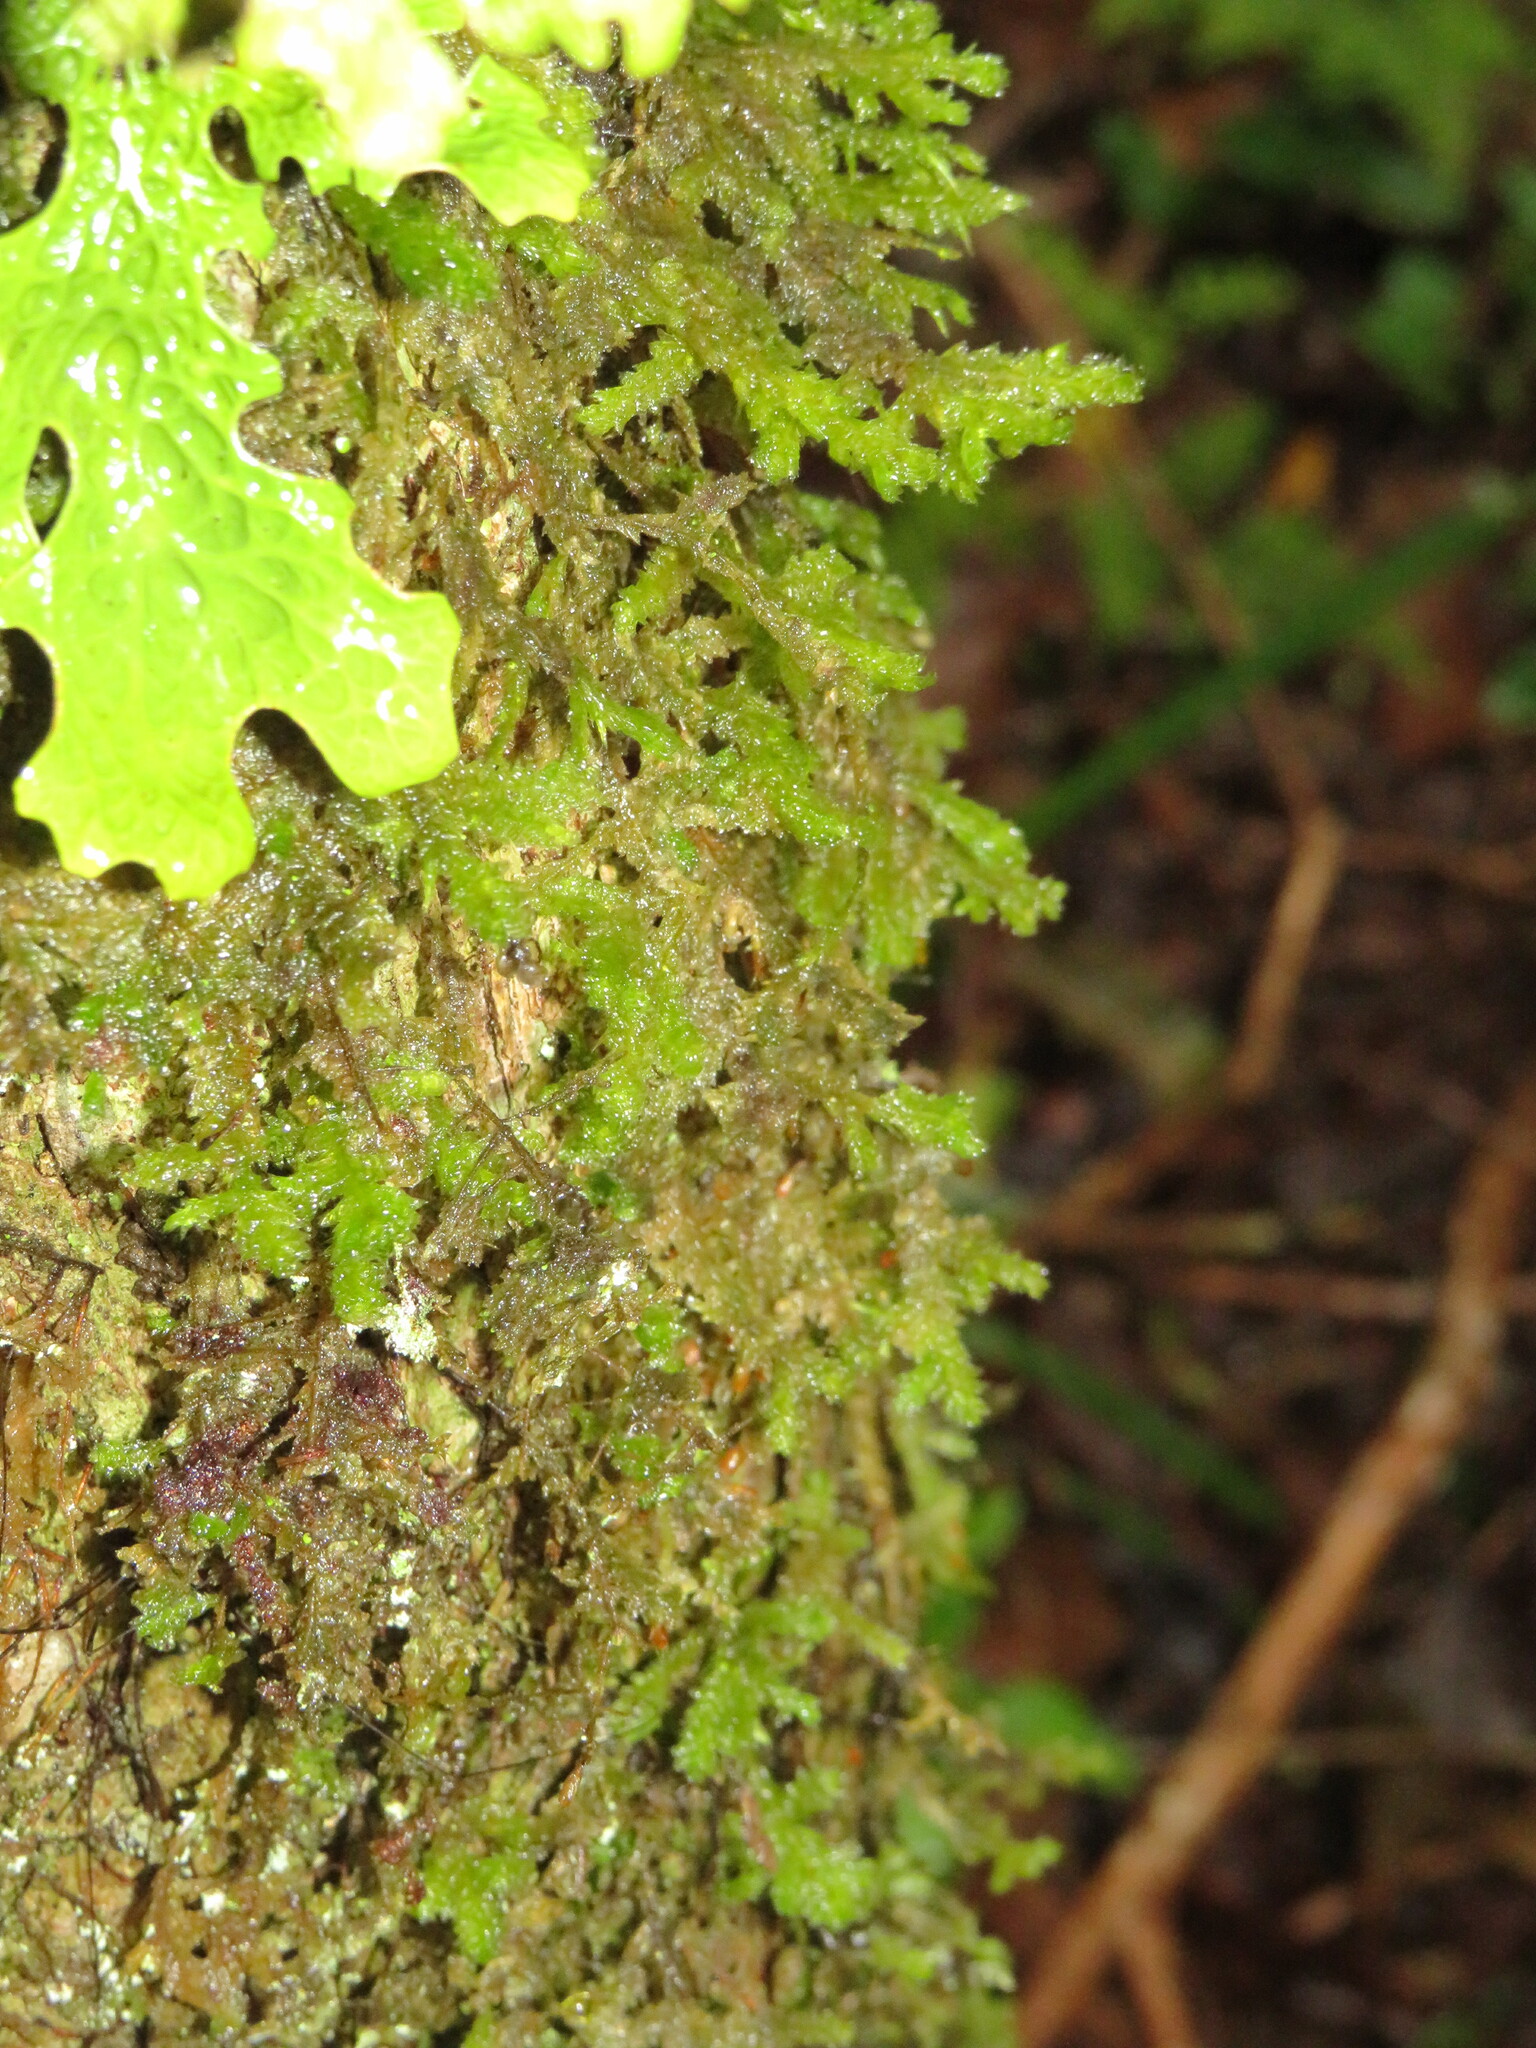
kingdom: Plantae
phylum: Bryophyta
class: Bryopsida
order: Hypnales
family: Neckeraceae
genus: Alleniella
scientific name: Alleniella ehrenbergii
